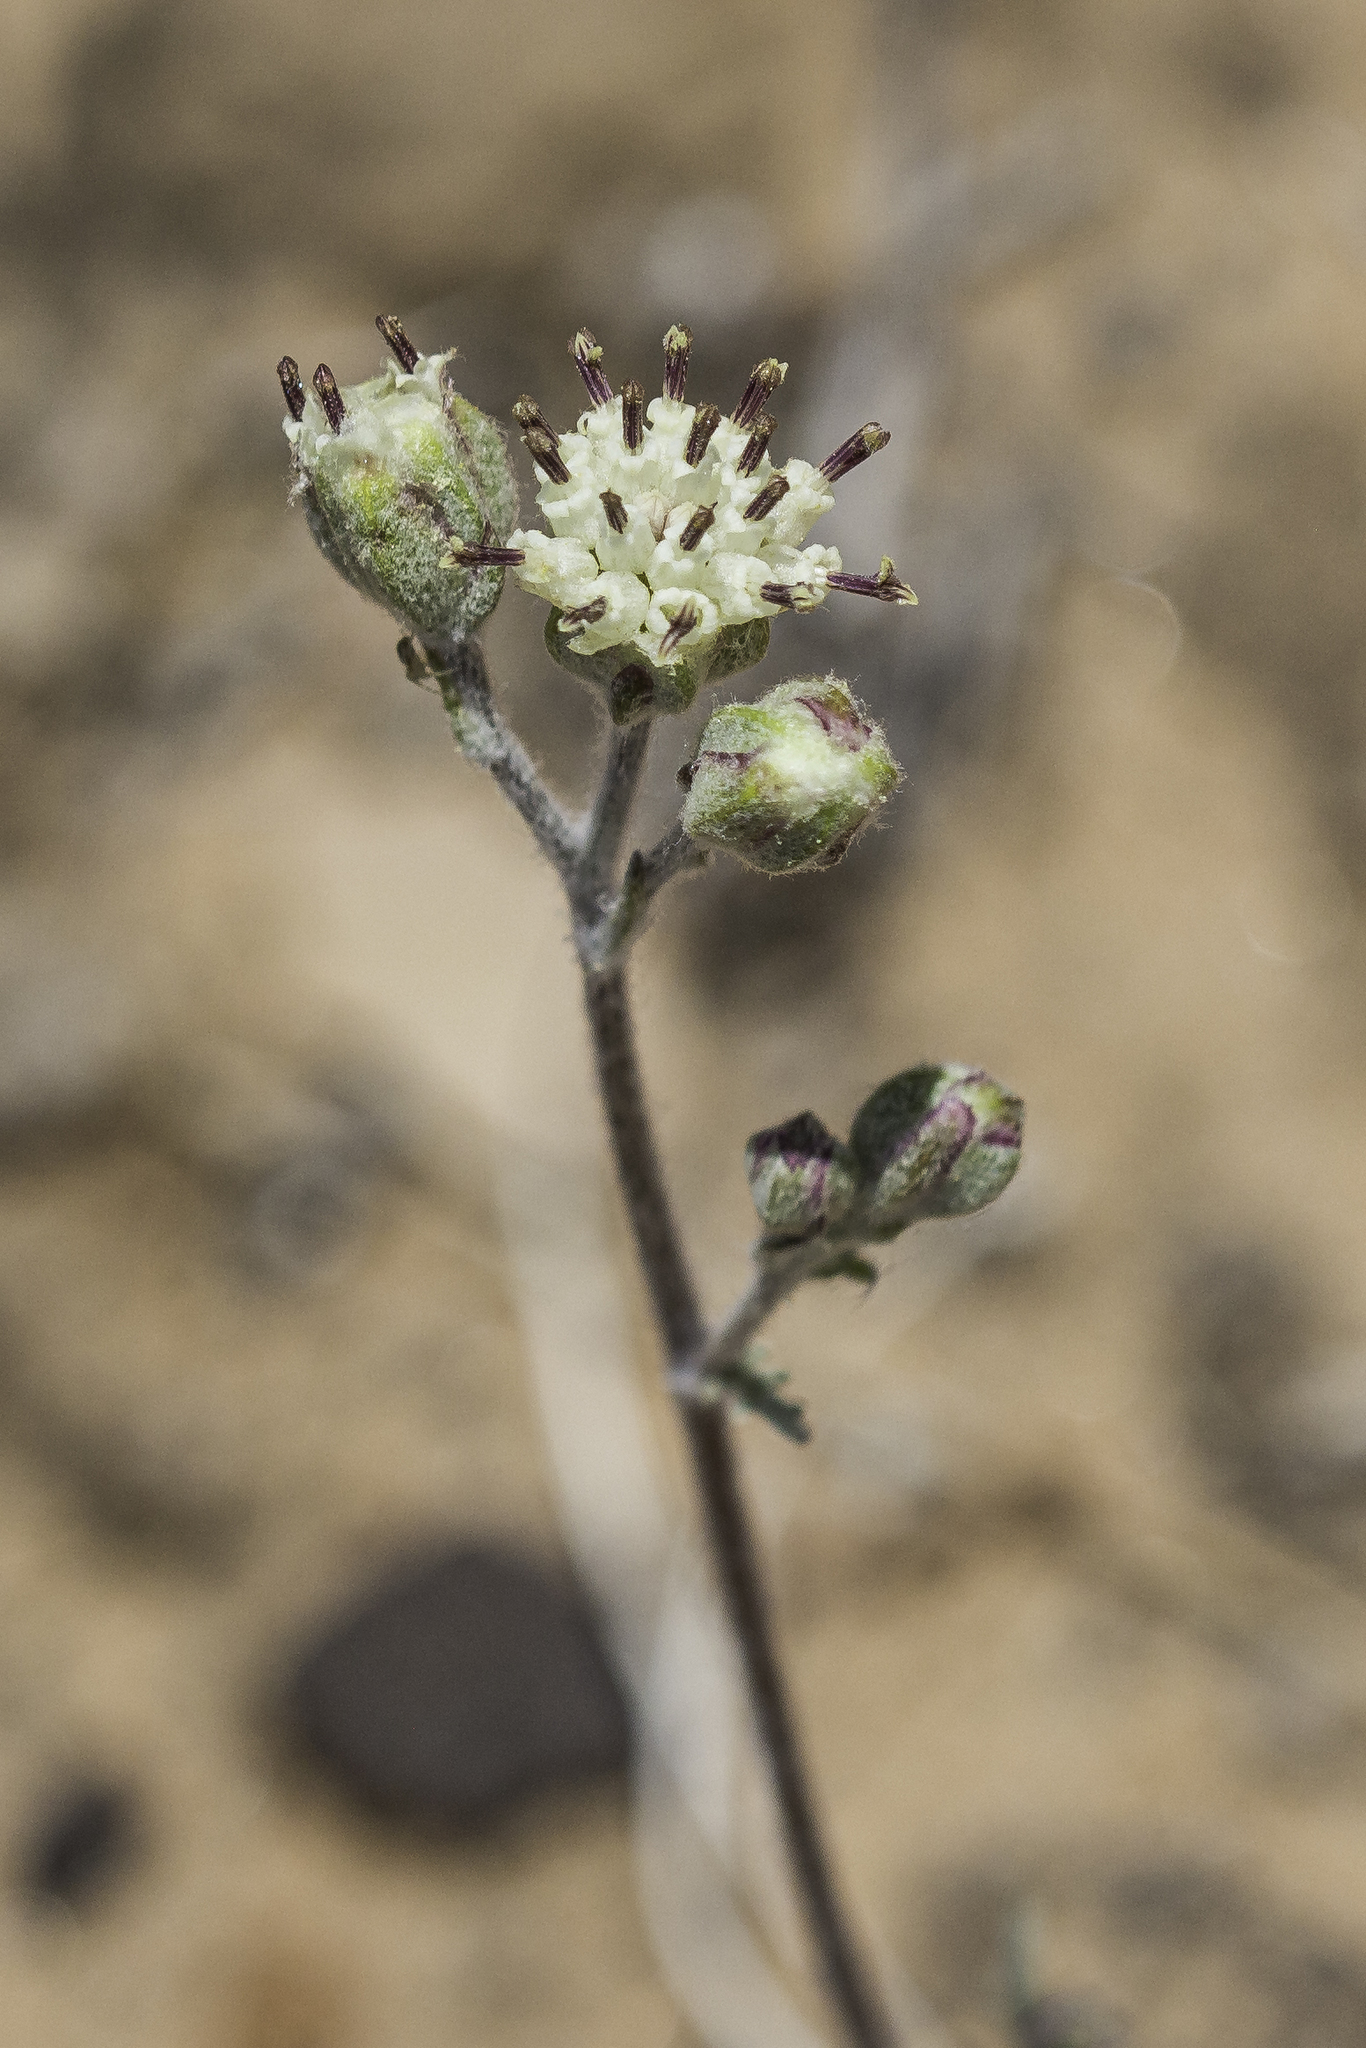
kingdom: Plantae
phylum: Tracheophyta
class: Magnoliopsida
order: Asterales
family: Asteraceae
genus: Hymenopappus
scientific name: Hymenopappus filifolius
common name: Columbia cutleaf
